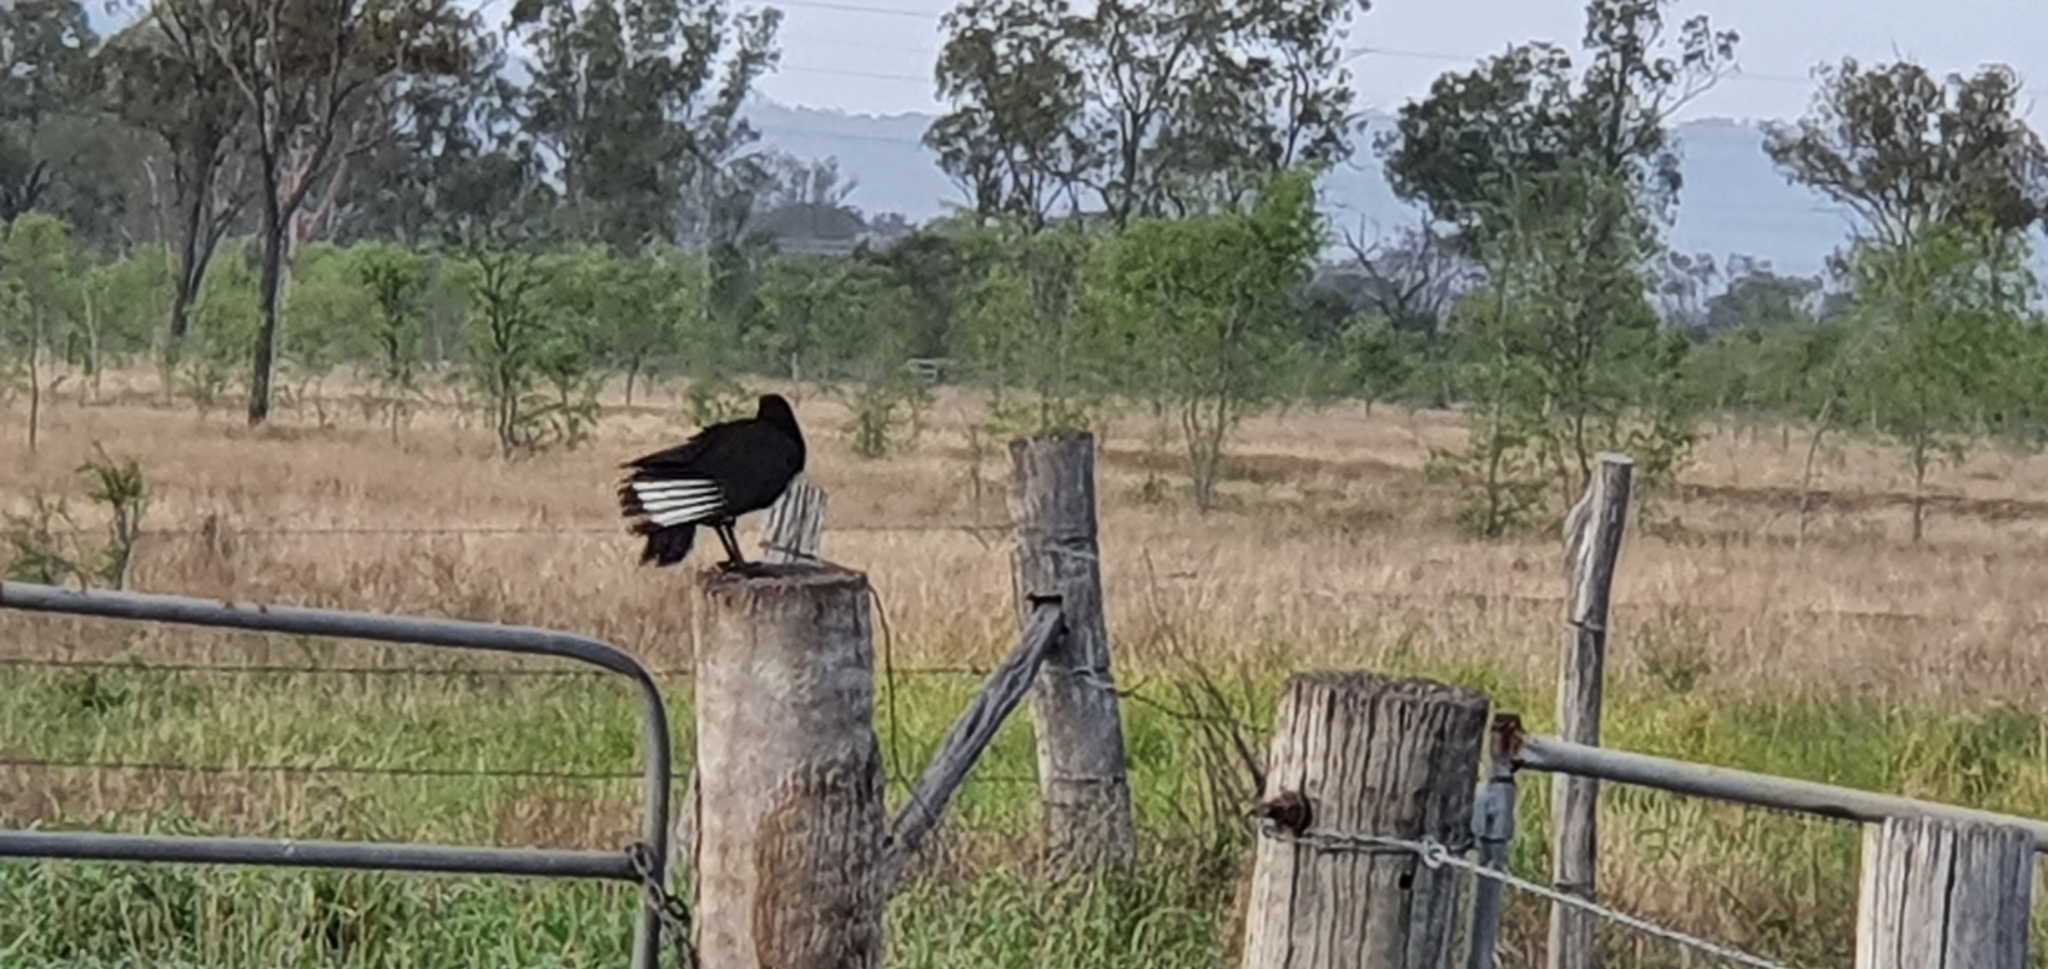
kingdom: Animalia
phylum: Chordata
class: Aves
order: Passeriformes
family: Corcoracidae
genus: Corcorax
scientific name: Corcorax melanoramphos
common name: White-winged chough
